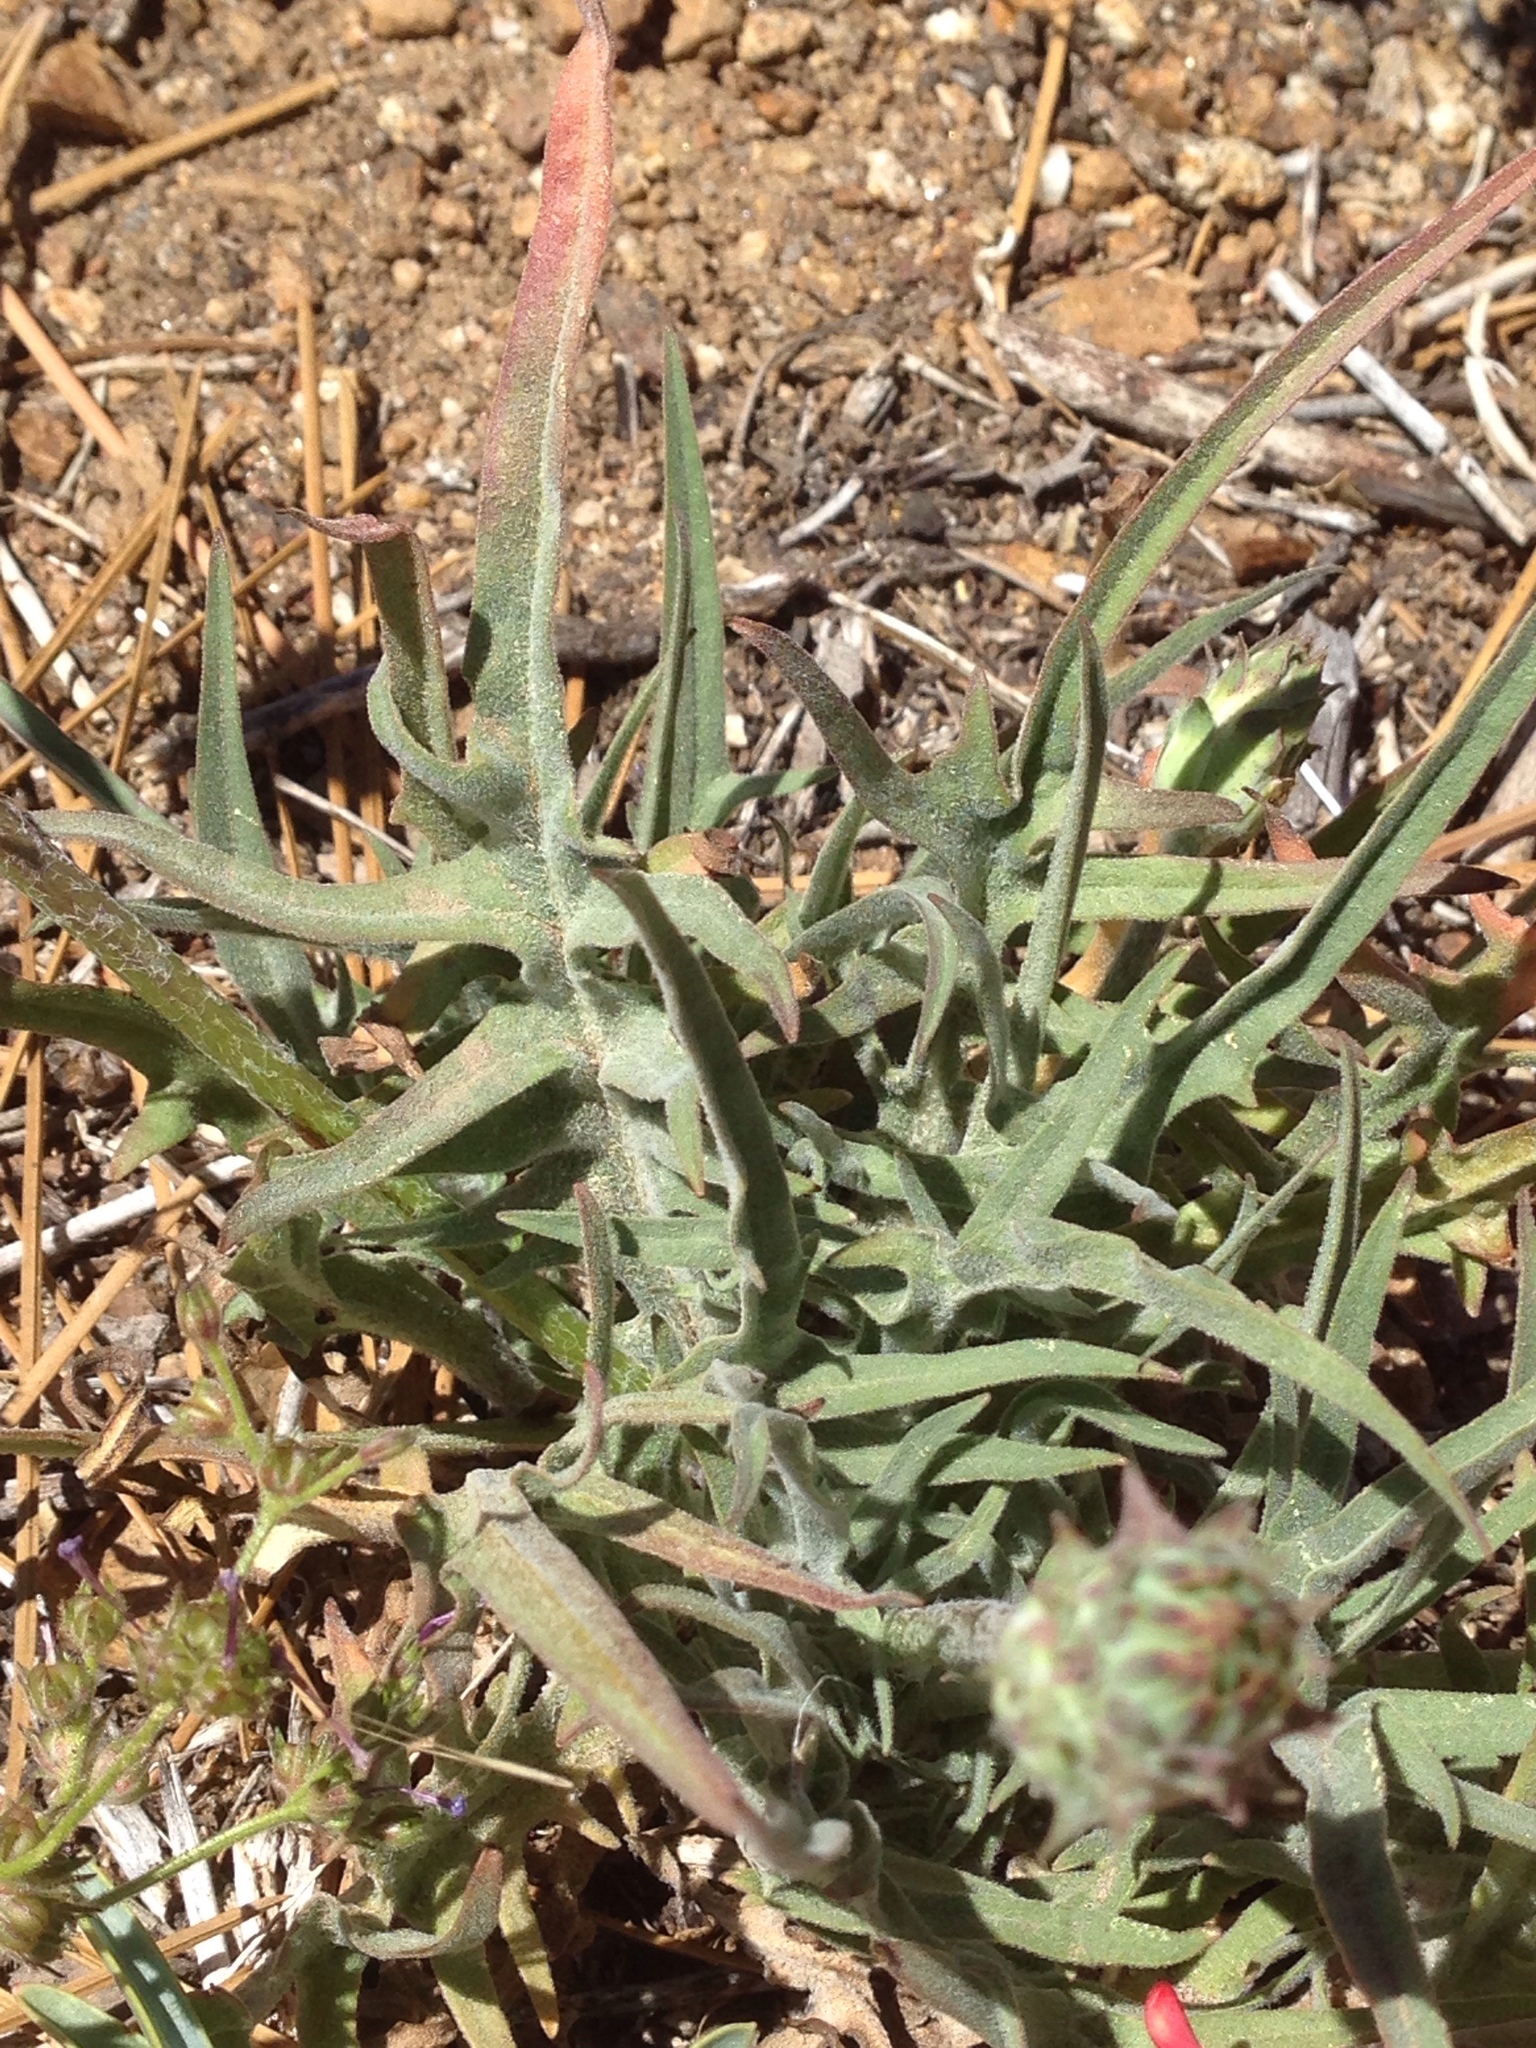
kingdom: Plantae
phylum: Tracheophyta
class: Magnoliopsida
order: Asterales
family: Asteraceae
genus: Agoseris
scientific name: Agoseris grandiflora
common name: Grassland agoseris
